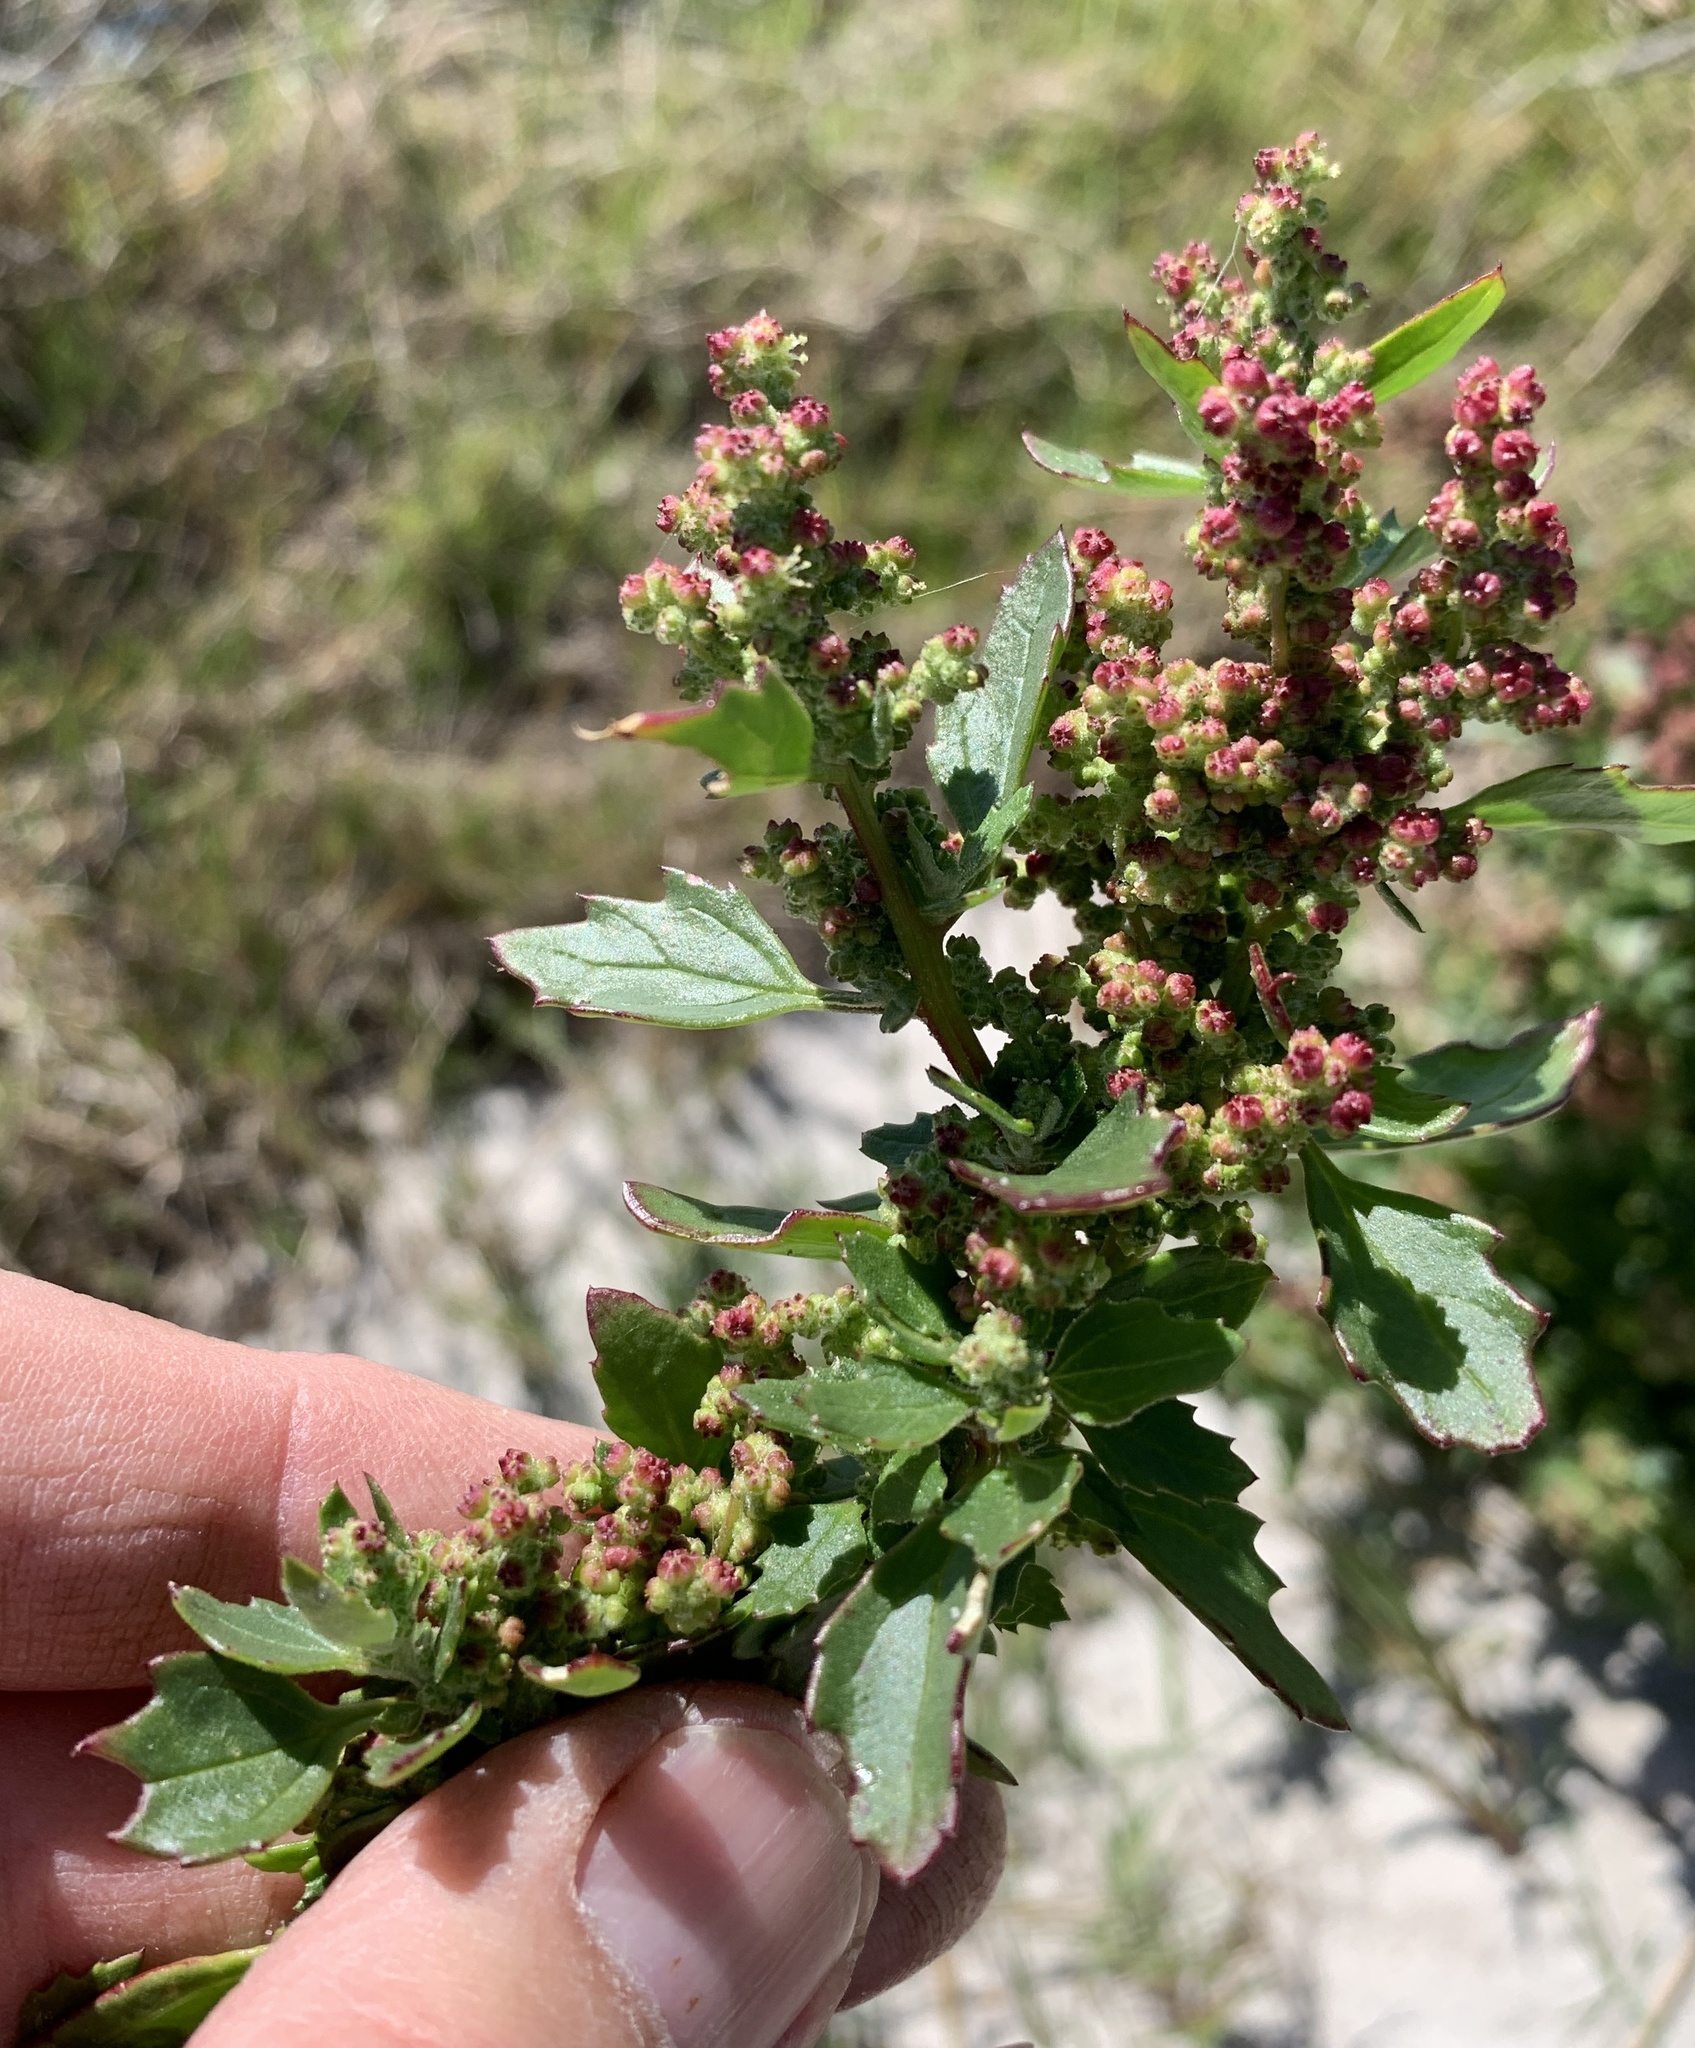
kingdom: Plantae
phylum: Tracheophyta
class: Magnoliopsida
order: Caryophyllales
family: Amaranthaceae
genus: Chenopodiastrum
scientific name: Chenopodiastrum murale
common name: Sowbane
